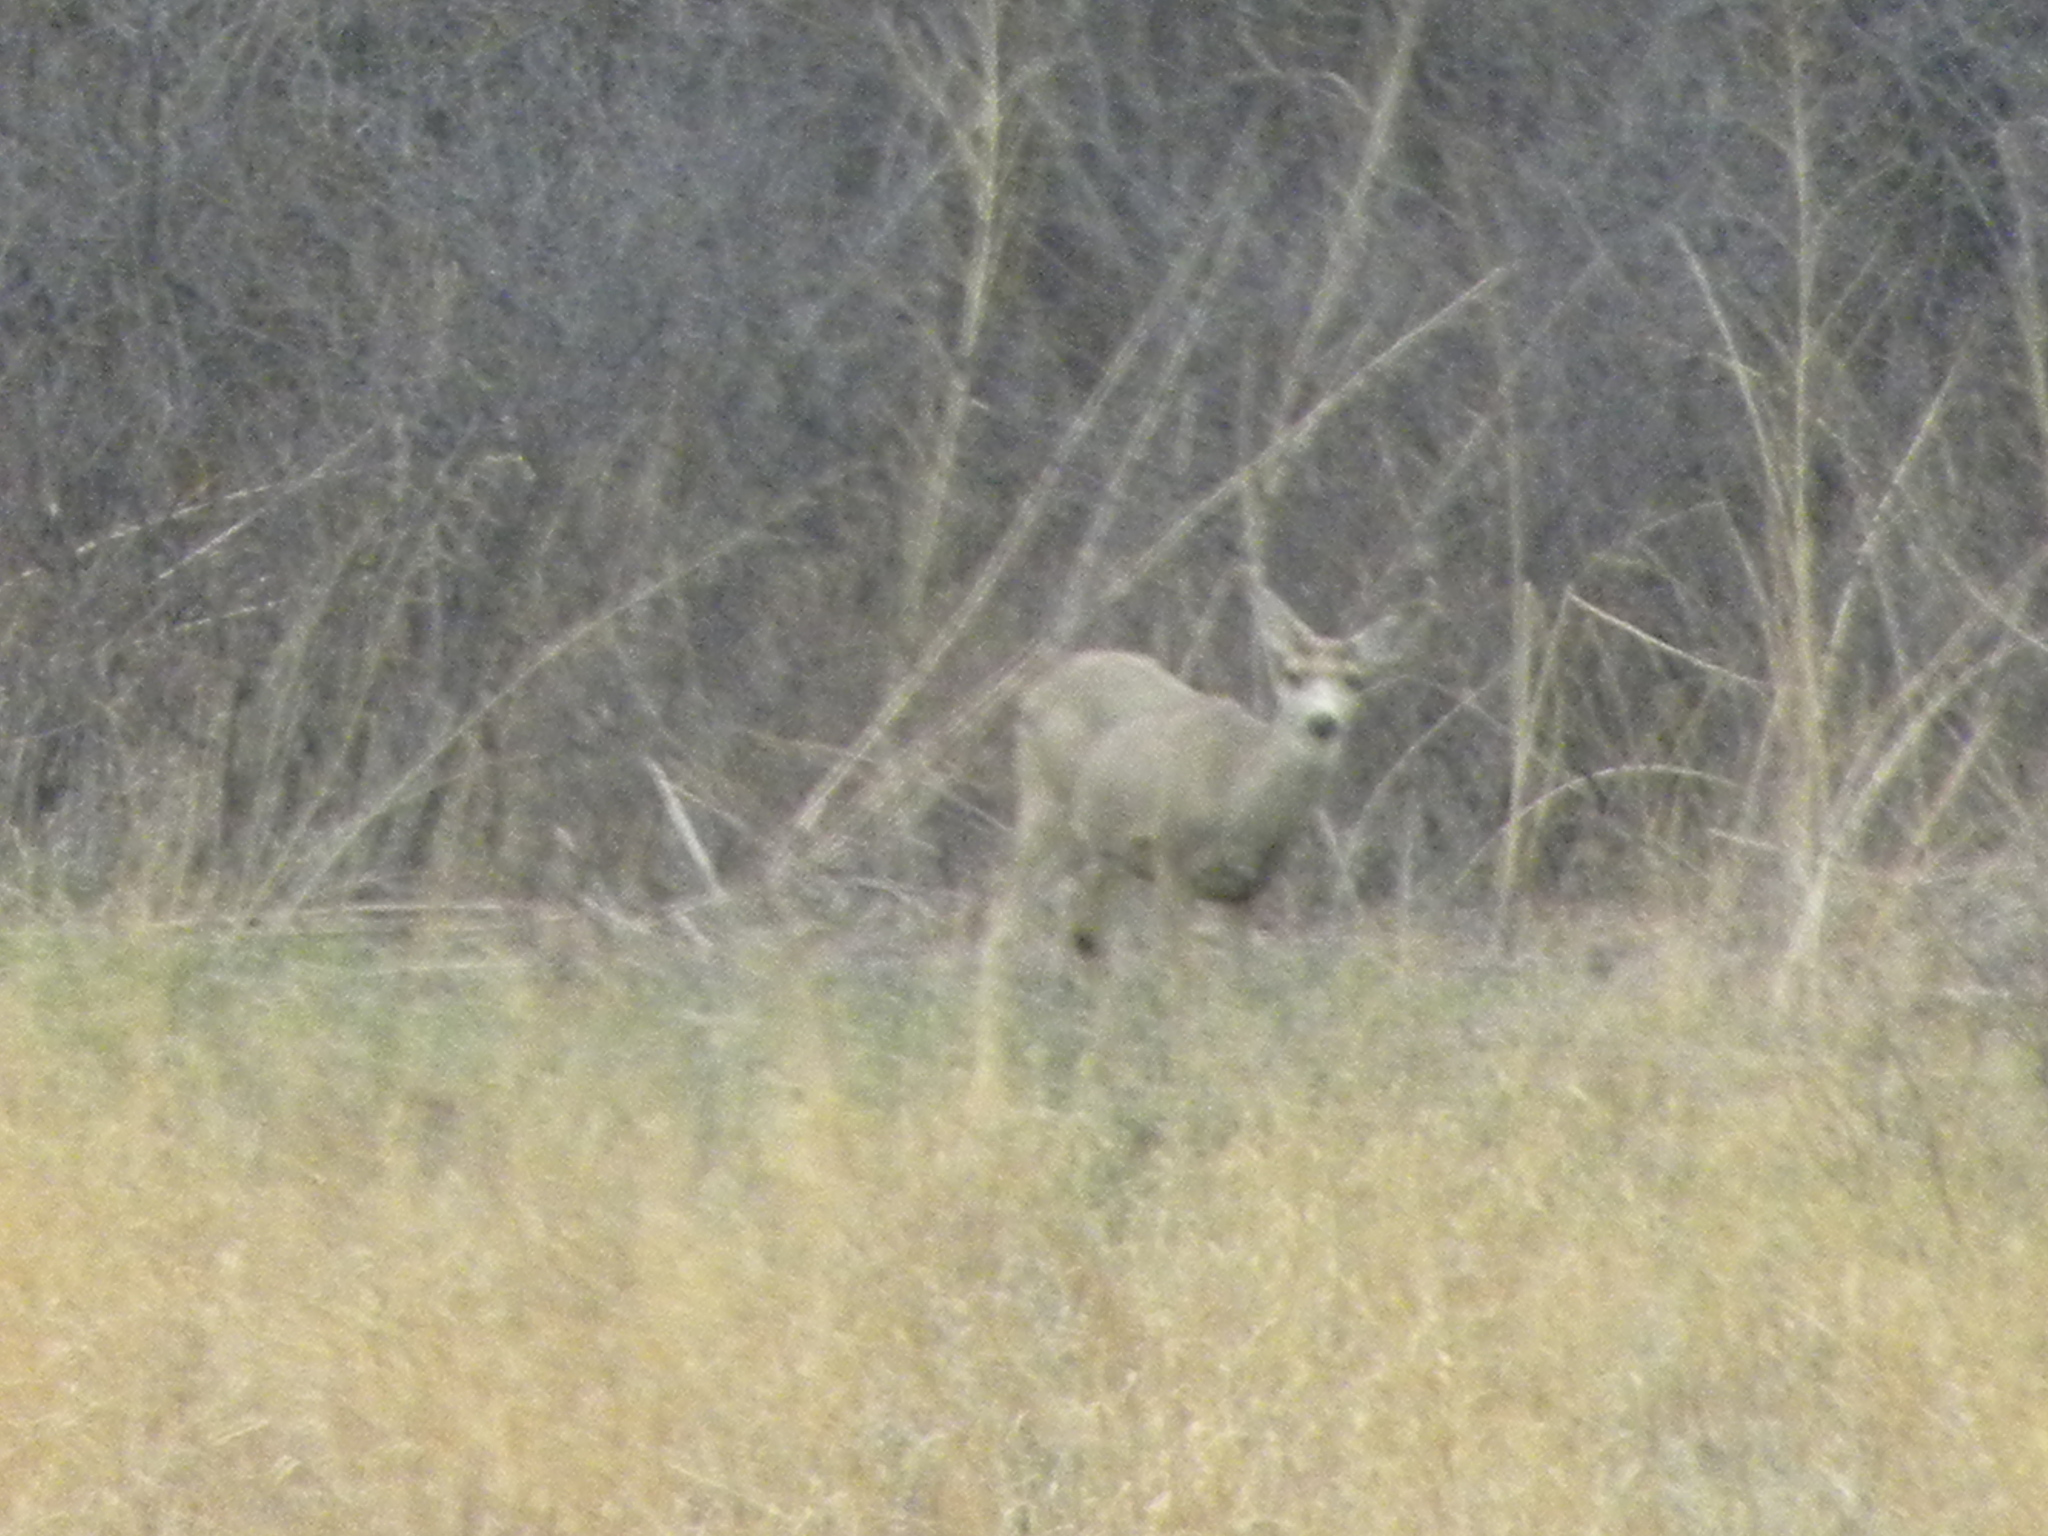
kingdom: Animalia
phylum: Chordata
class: Mammalia
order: Artiodactyla
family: Cervidae
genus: Odocoileus
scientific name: Odocoileus hemionus
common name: Mule deer
